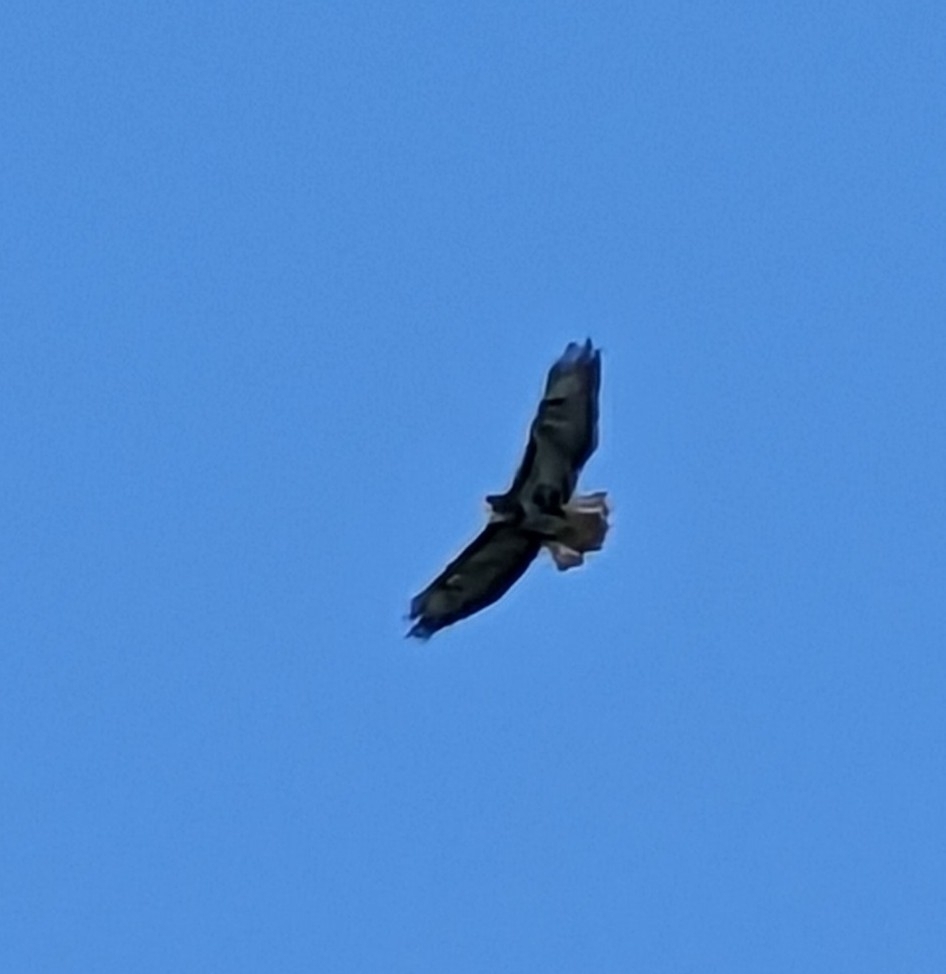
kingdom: Animalia
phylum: Chordata
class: Aves
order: Accipitriformes
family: Accipitridae
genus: Buteo
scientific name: Buteo buteo
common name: Common buzzard
